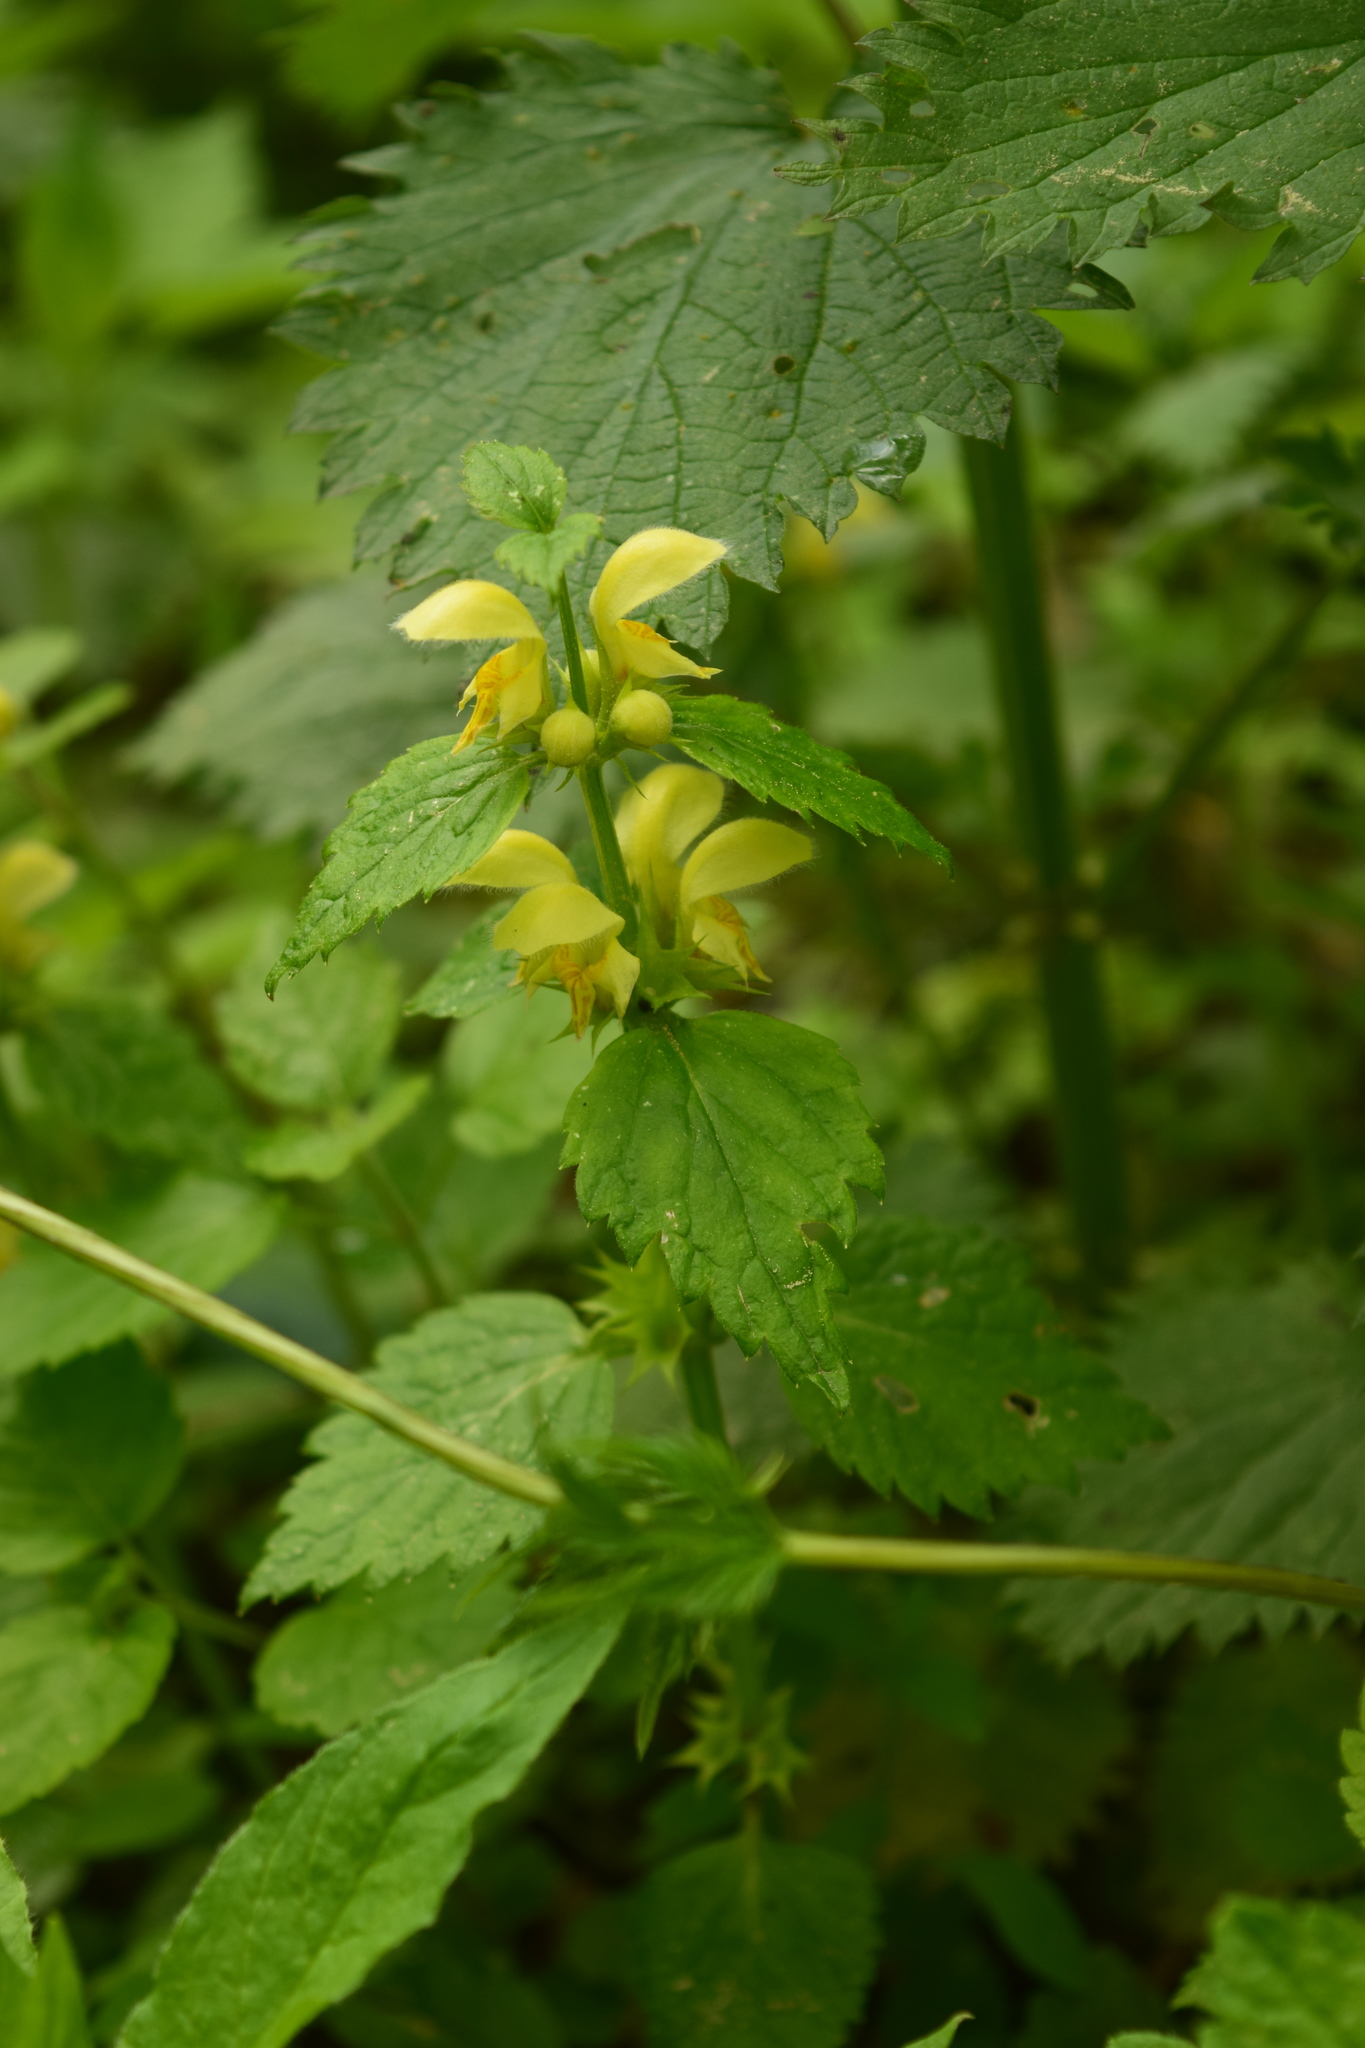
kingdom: Plantae
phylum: Tracheophyta
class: Magnoliopsida
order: Lamiales
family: Lamiaceae
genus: Lamium
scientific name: Lamium galeobdolon
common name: Yellow archangel
